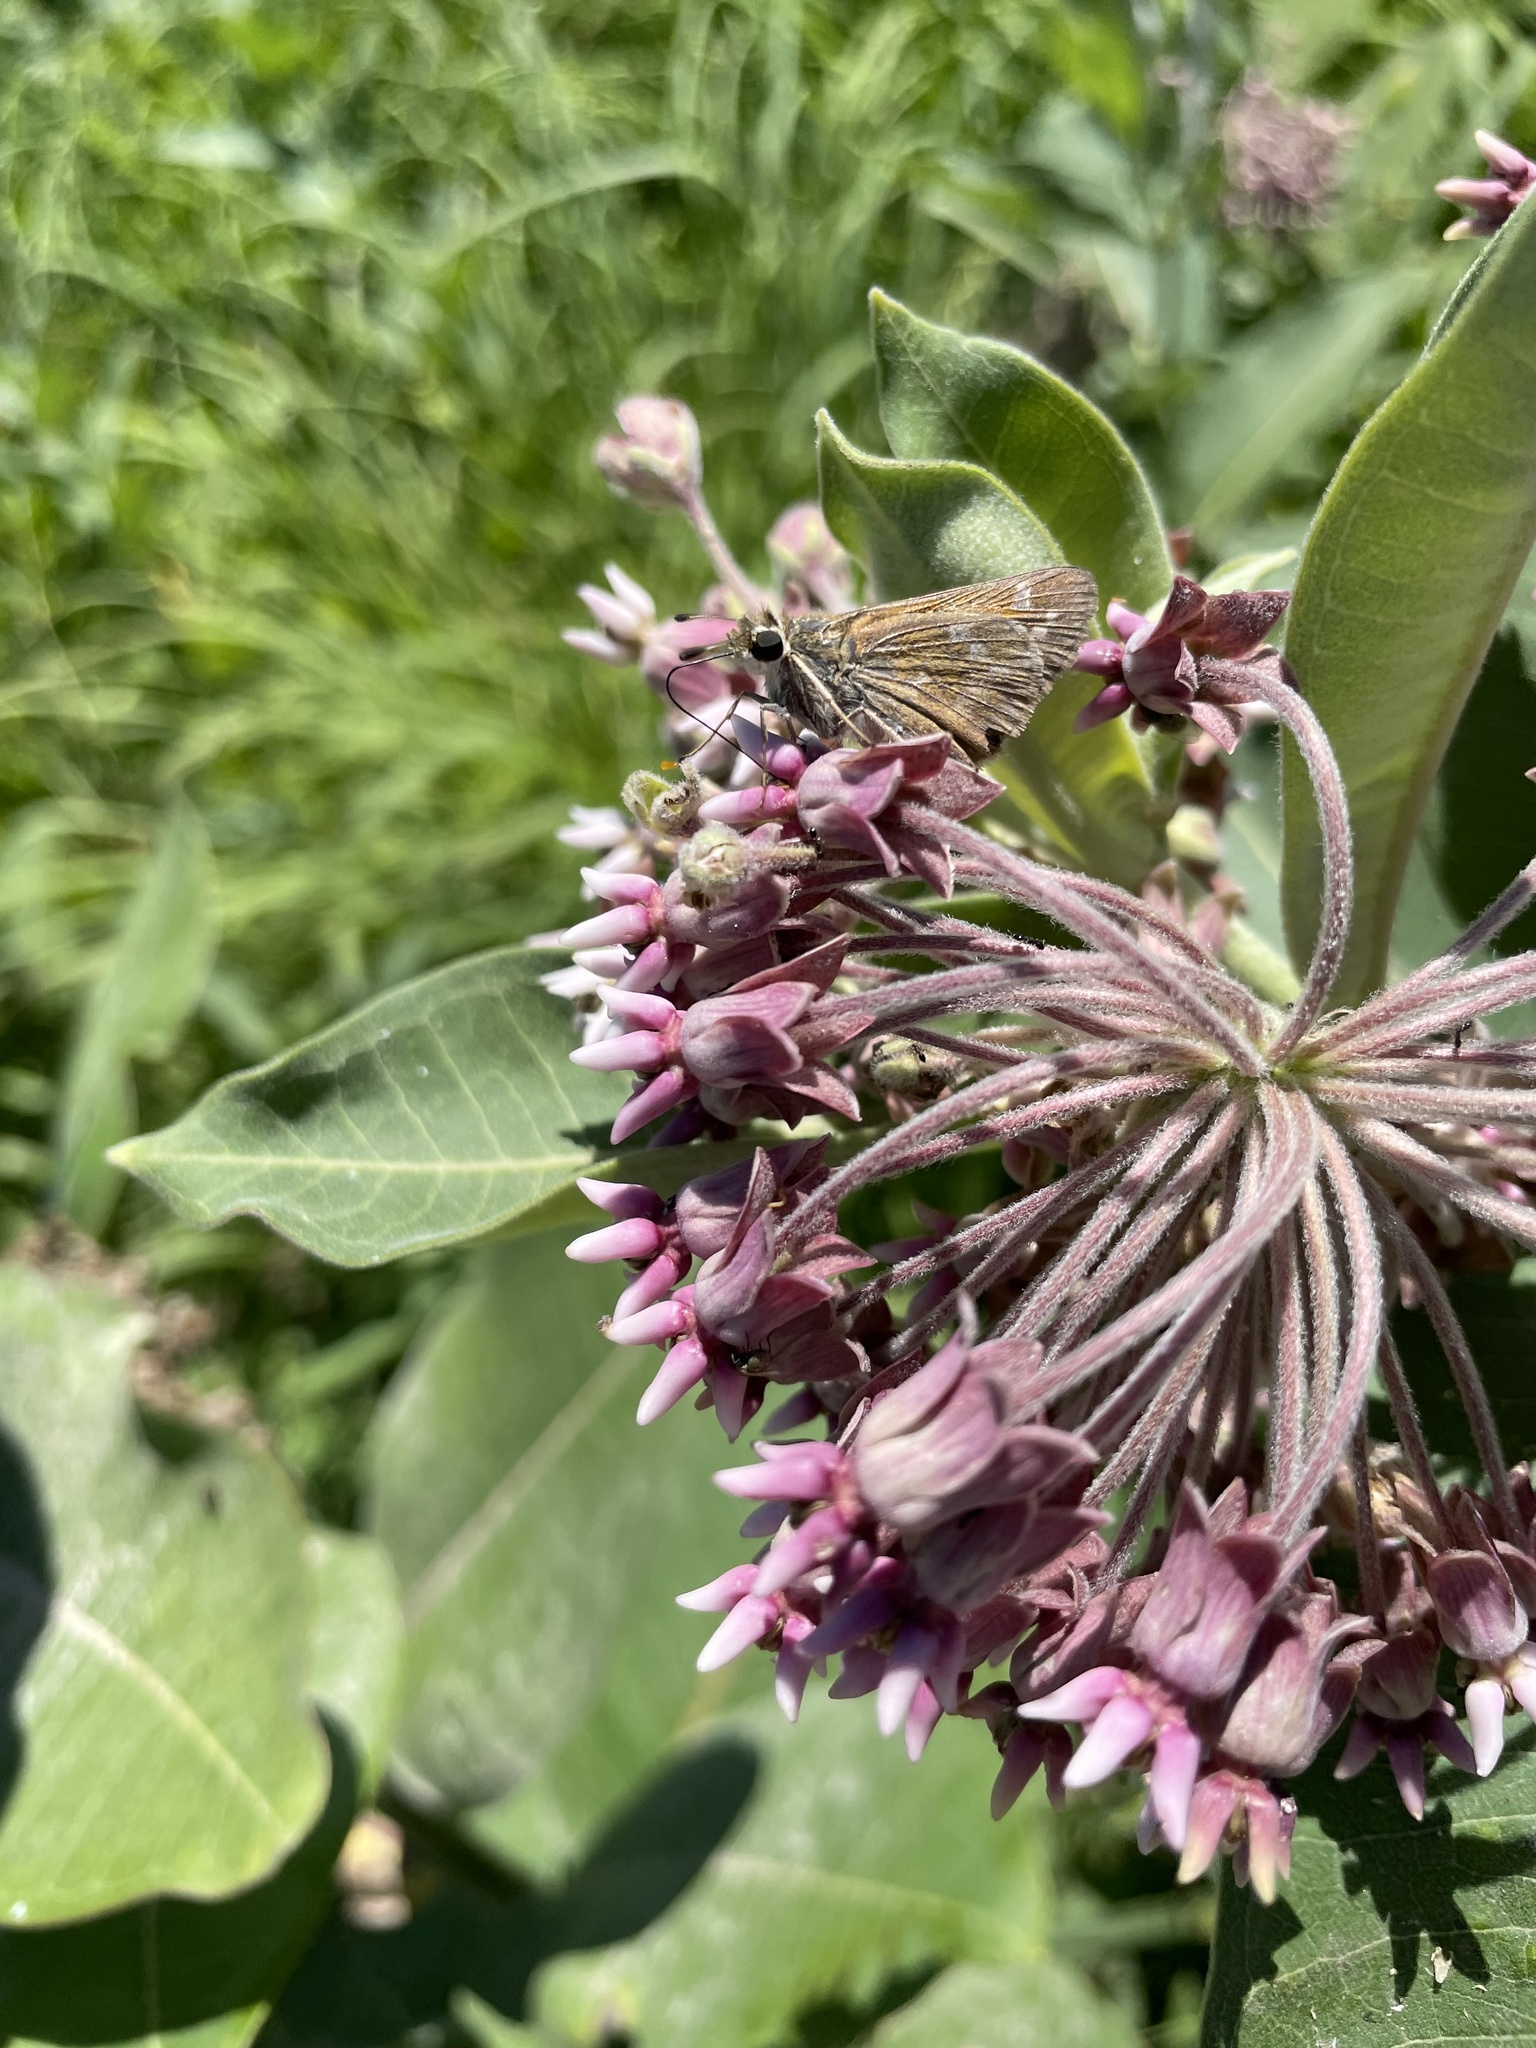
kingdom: Animalia
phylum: Arthropoda
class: Insecta
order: Lepidoptera
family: Hesperiidae
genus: Atalopedes
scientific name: Atalopedes
